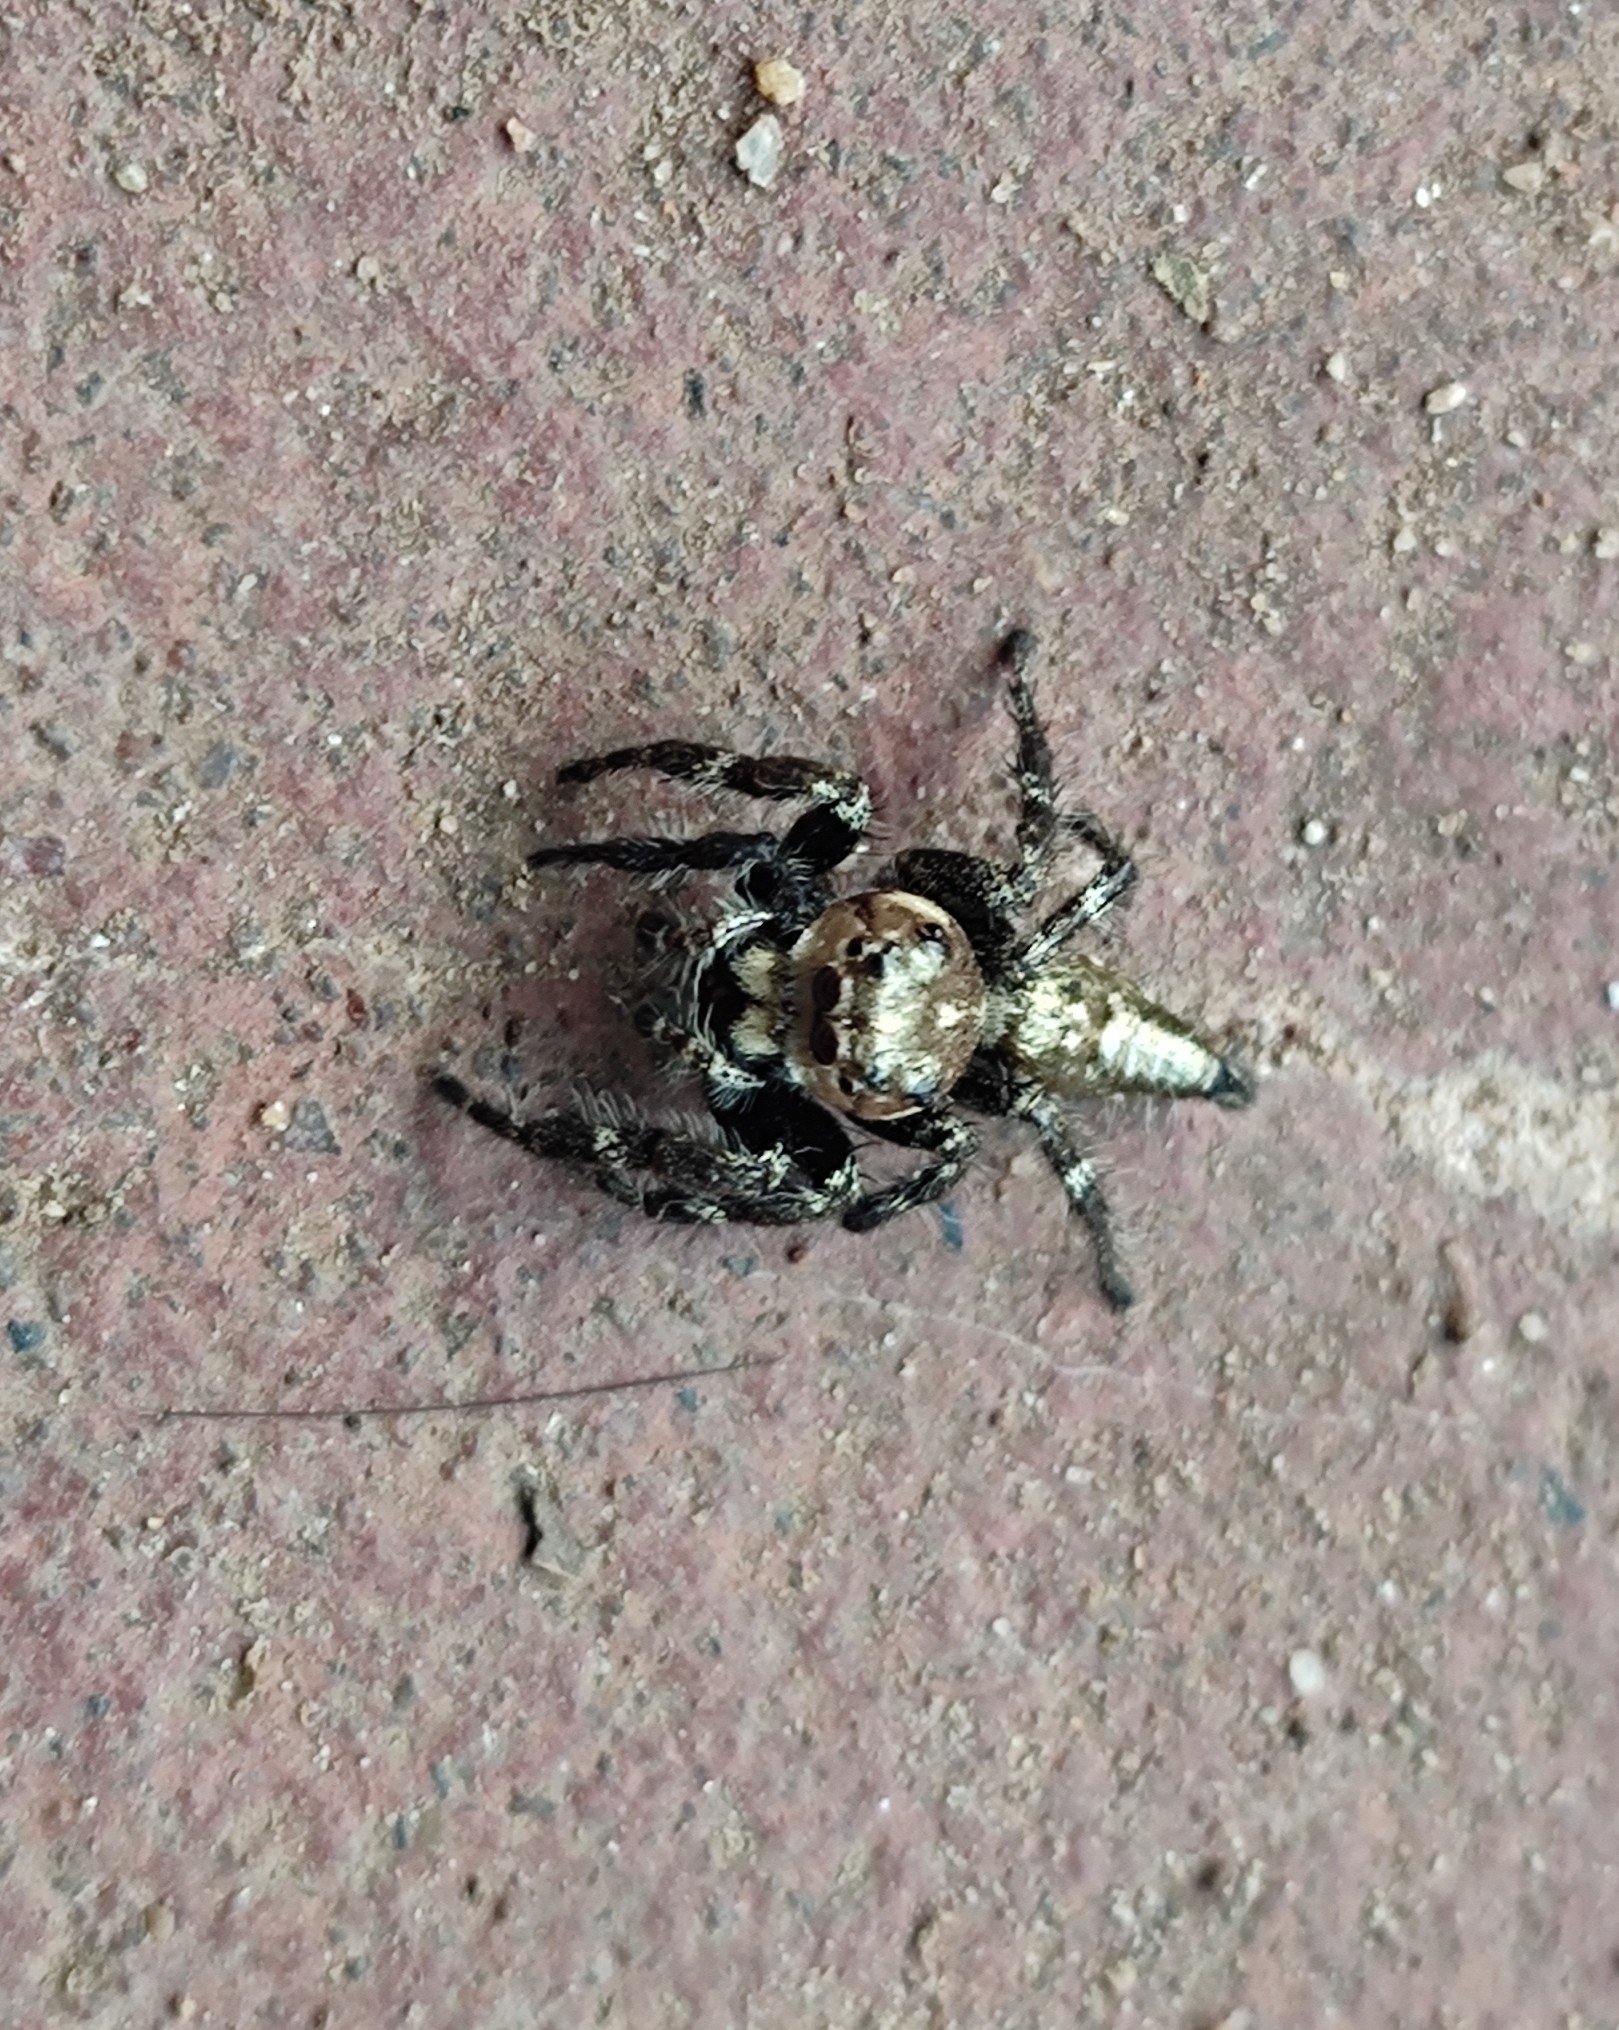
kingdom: Animalia
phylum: Arthropoda
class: Arachnida
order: Araneae
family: Salticidae
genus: Hyllus
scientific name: Hyllus semicupreus
